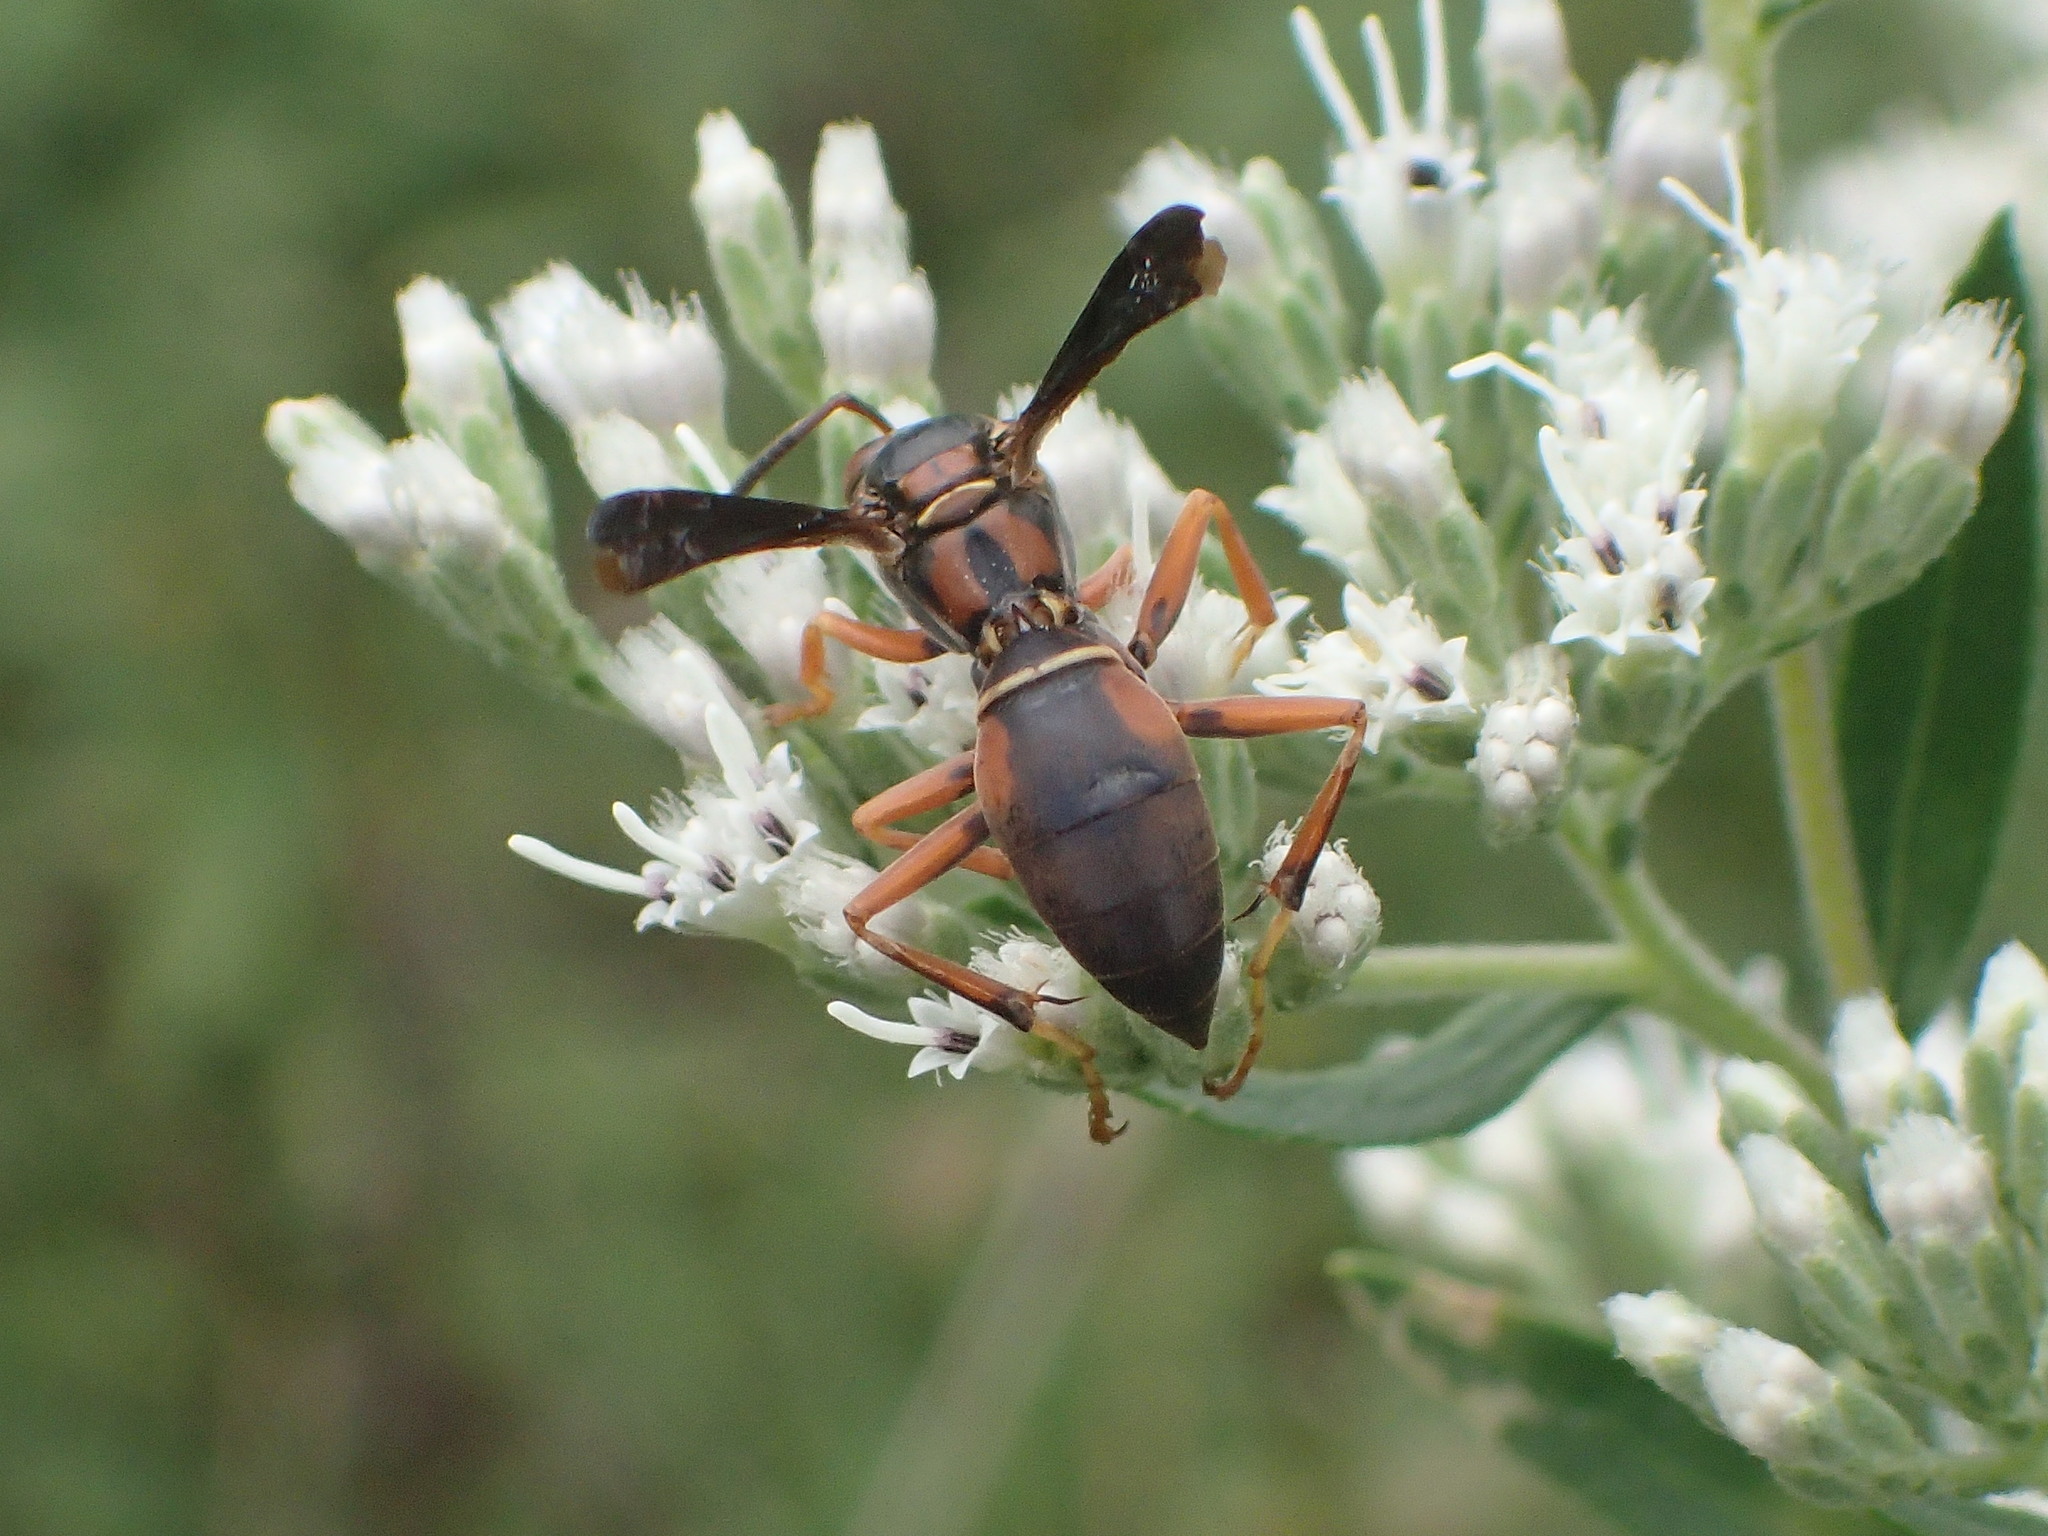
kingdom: Animalia
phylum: Arthropoda
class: Insecta
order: Hymenoptera
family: Eumenidae
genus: Polistes
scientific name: Polistes fuscatus
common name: Dark paper wasp
